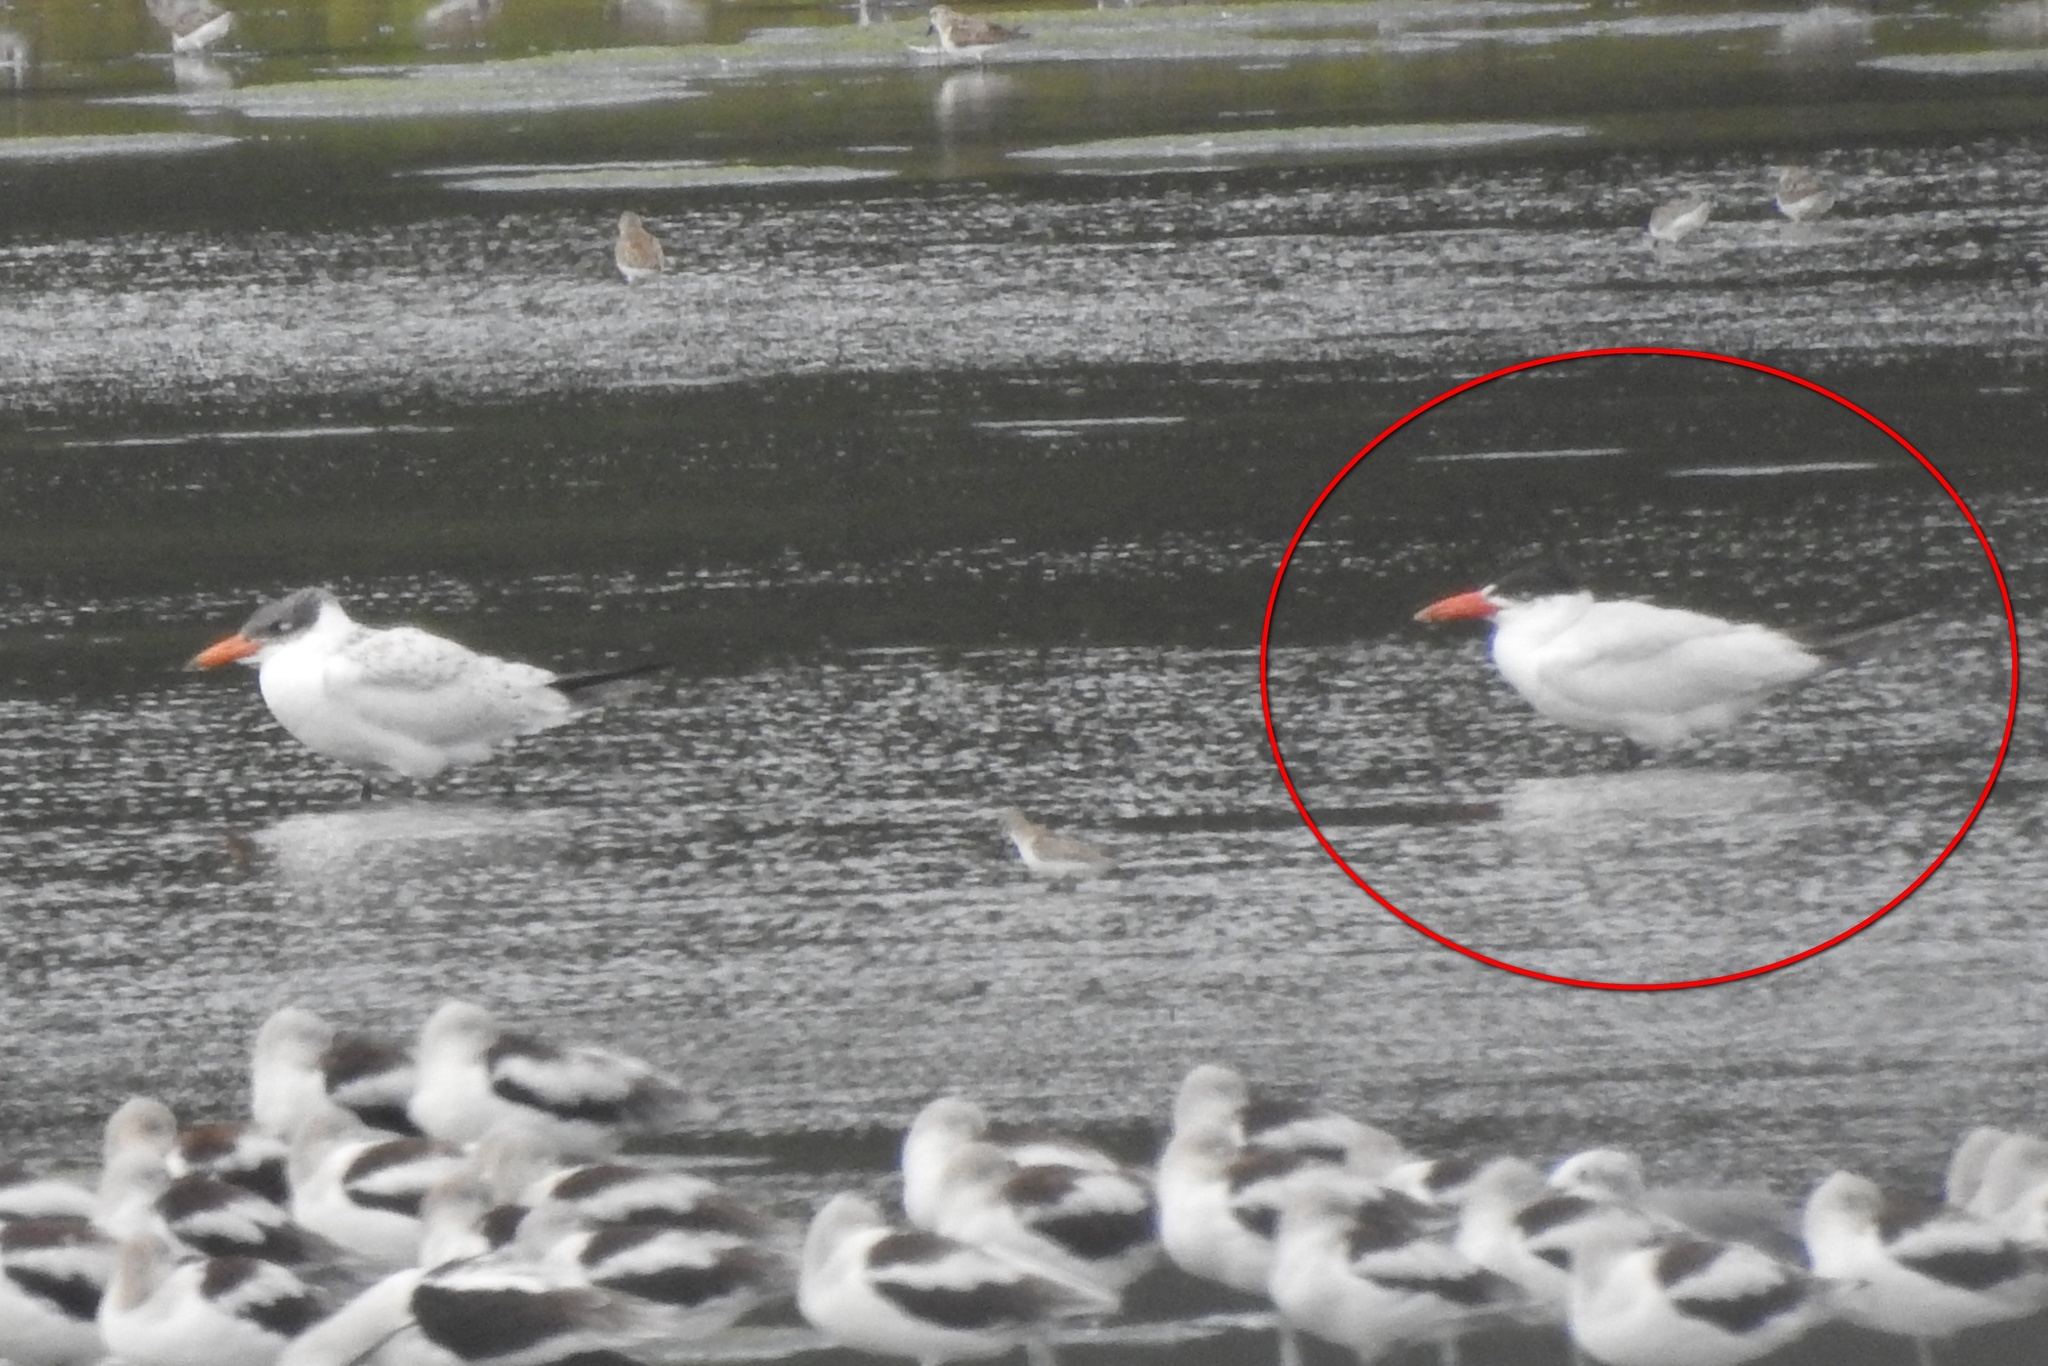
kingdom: Animalia
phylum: Chordata
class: Aves
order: Charadriiformes
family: Laridae
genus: Hydroprogne
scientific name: Hydroprogne caspia
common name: Caspian tern
